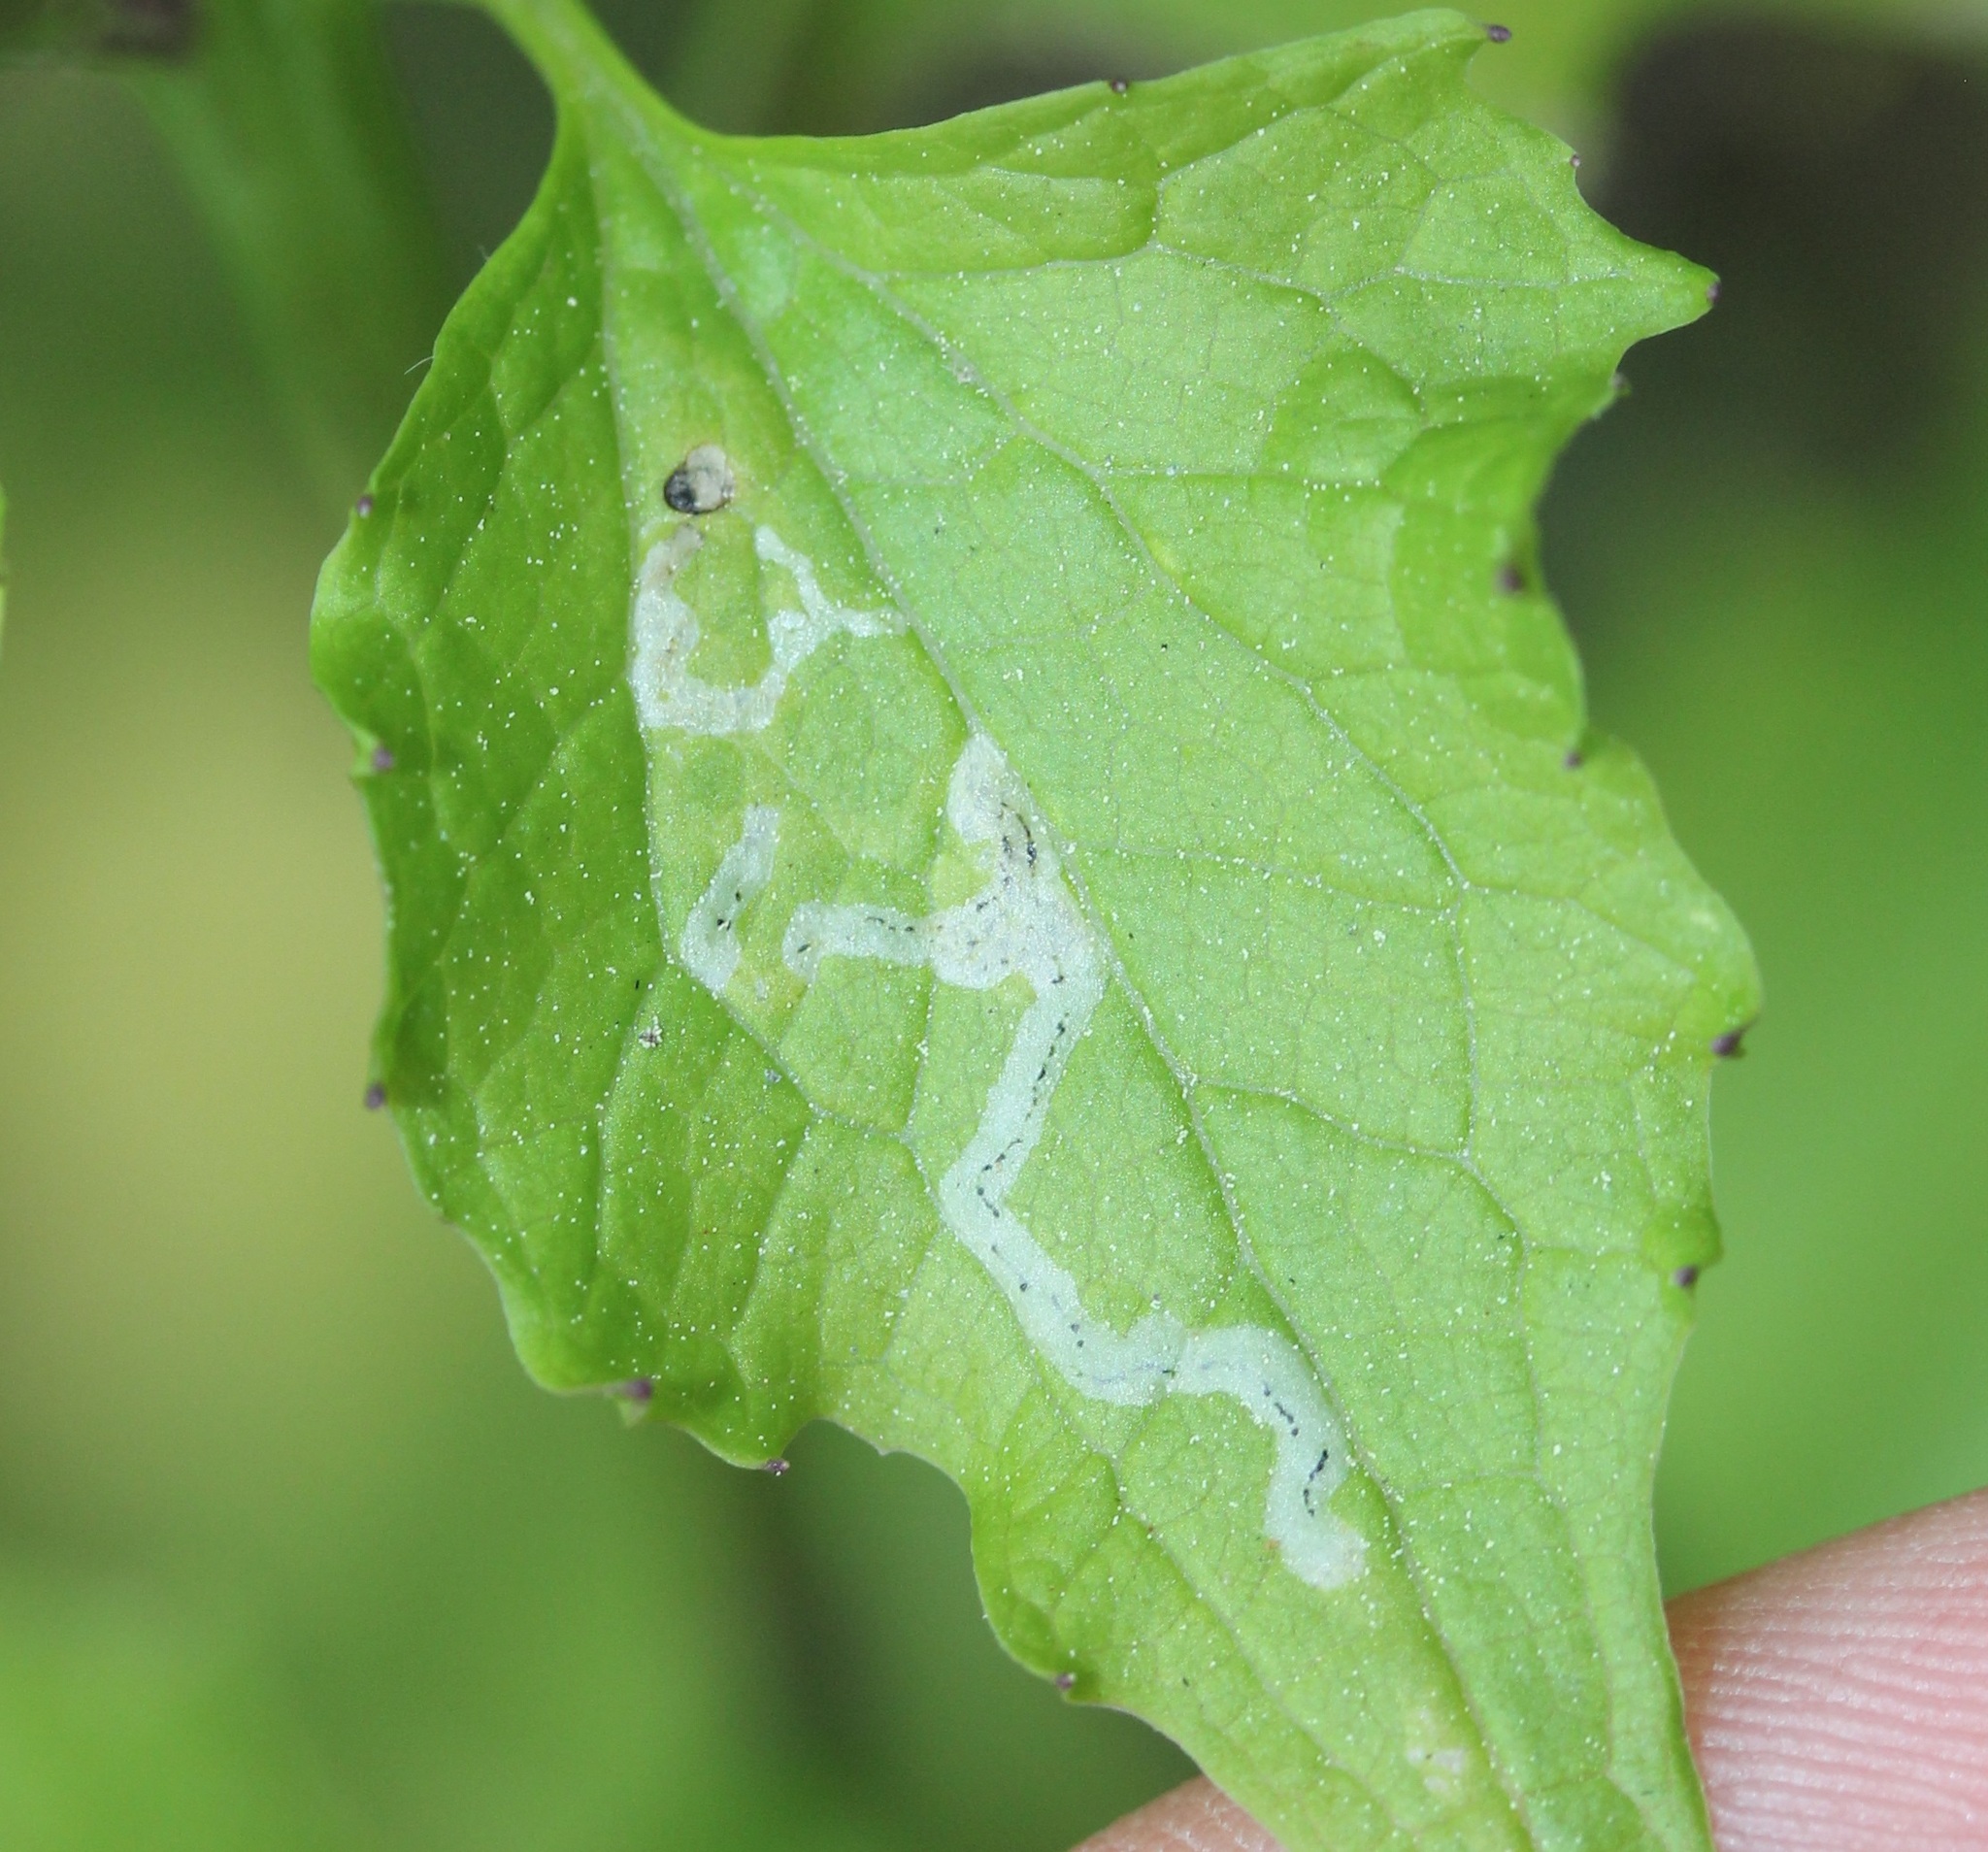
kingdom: Animalia
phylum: Arthropoda
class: Insecta
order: Diptera
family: Agromyzidae
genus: Liriomyza
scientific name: Liriomyza brassicae
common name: Serpentine leaf miner
